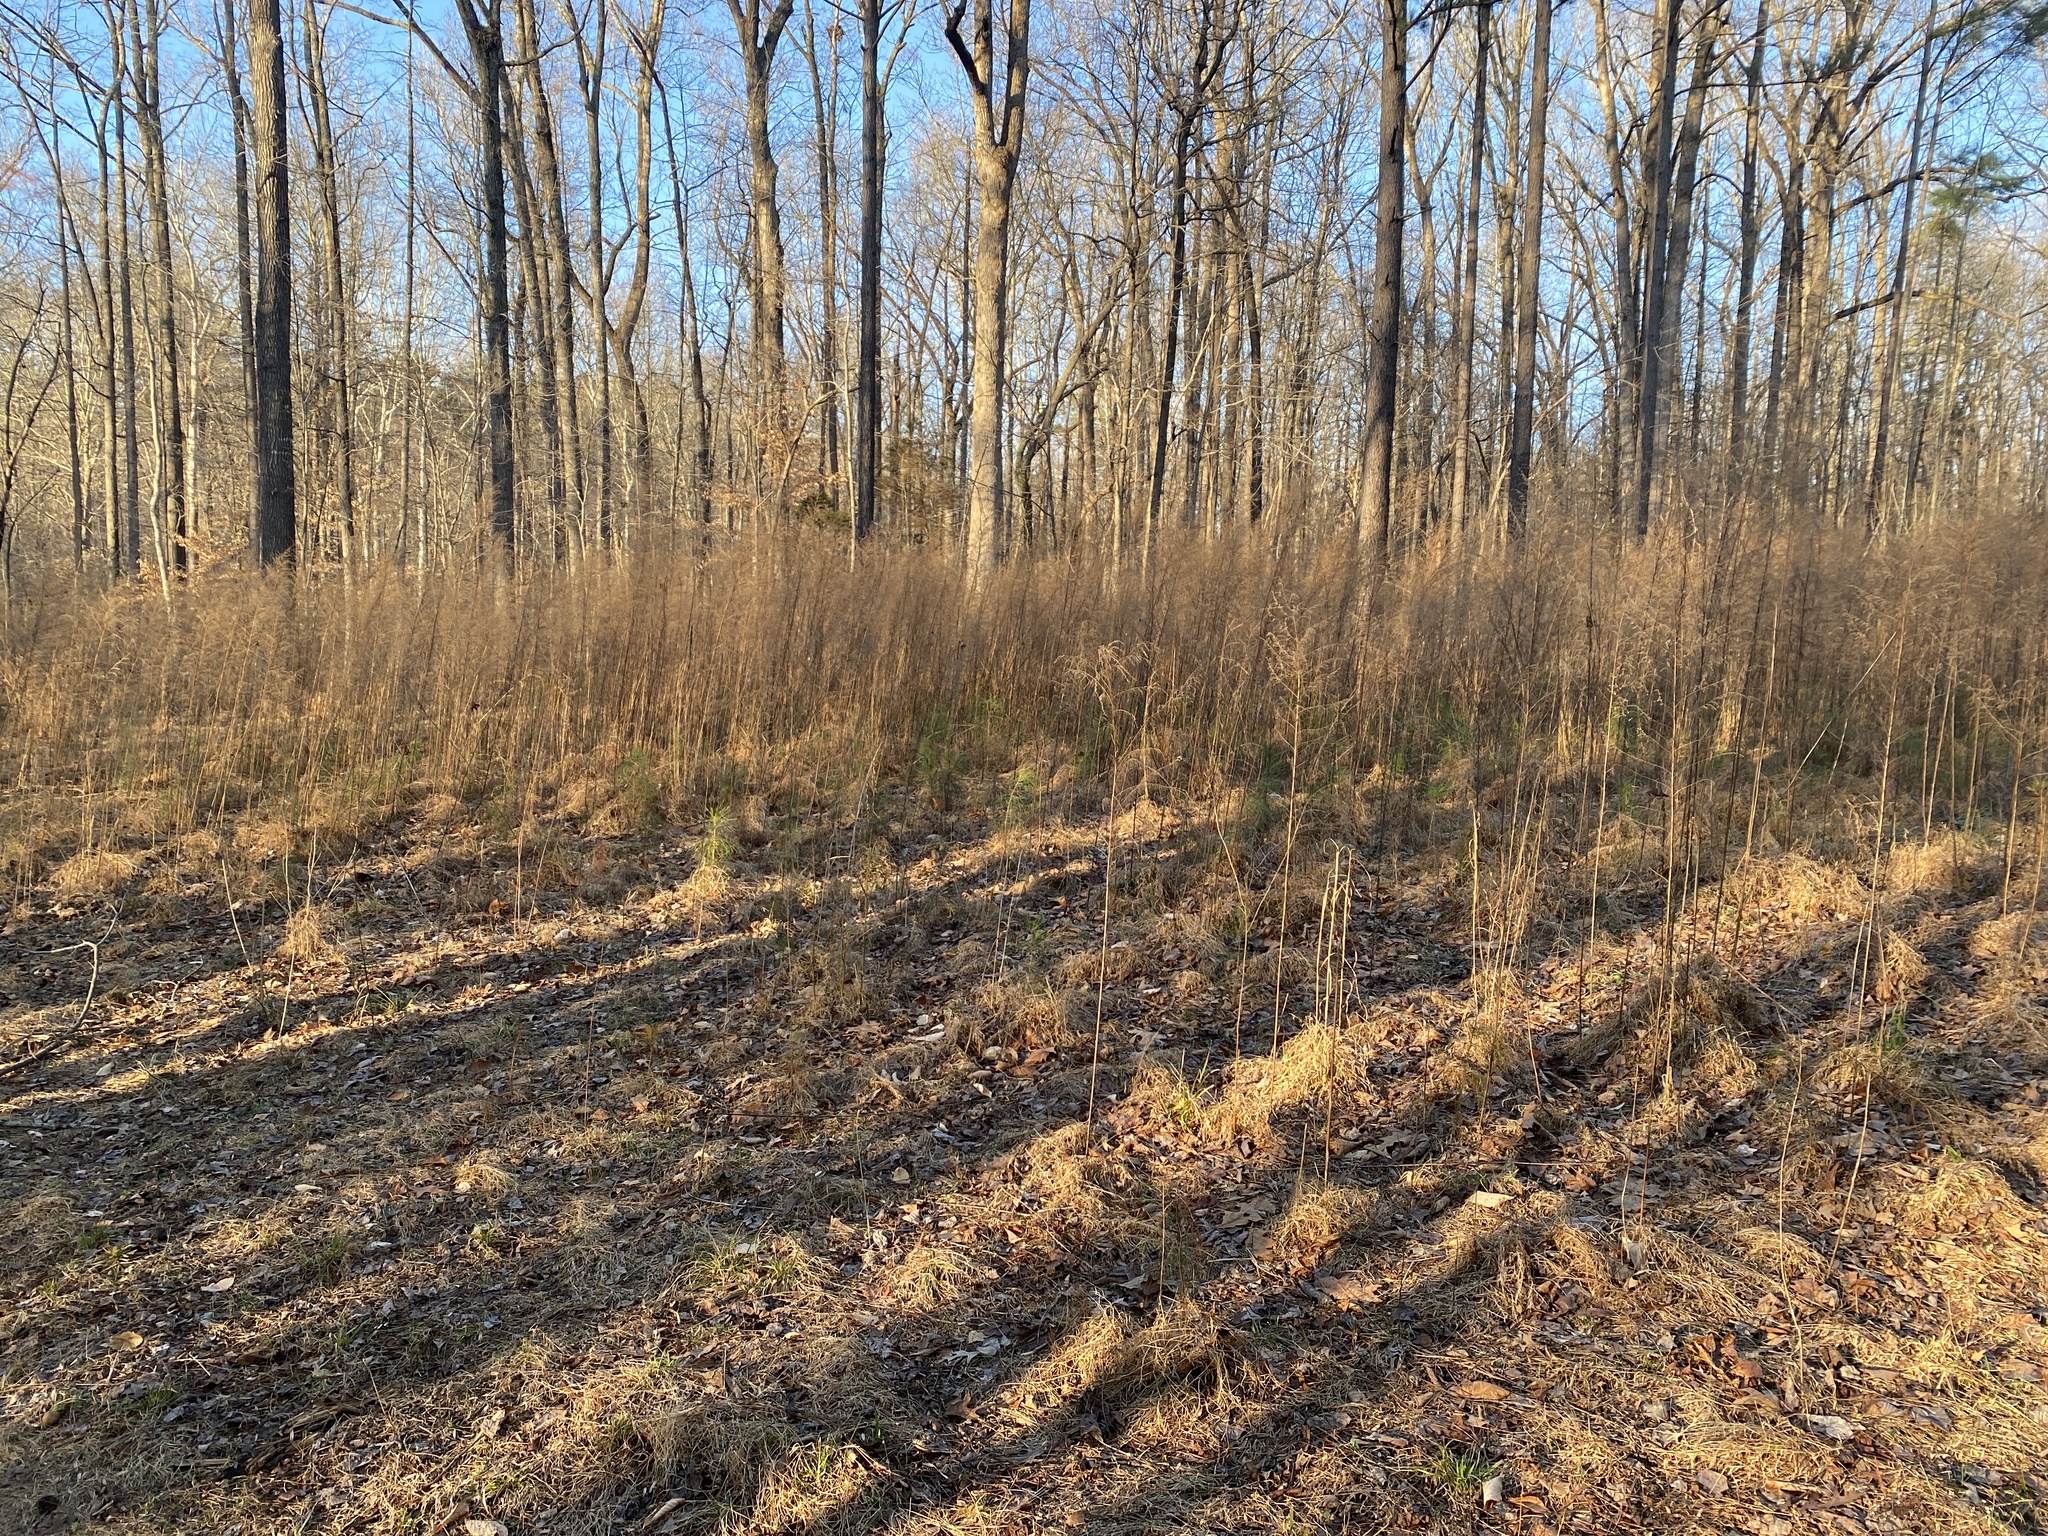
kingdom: Plantae
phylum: Tracheophyta
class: Magnoliopsida
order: Asterales
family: Asteraceae
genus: Eupatorium
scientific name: Eupatorium capillifolium
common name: Dog-fennel
